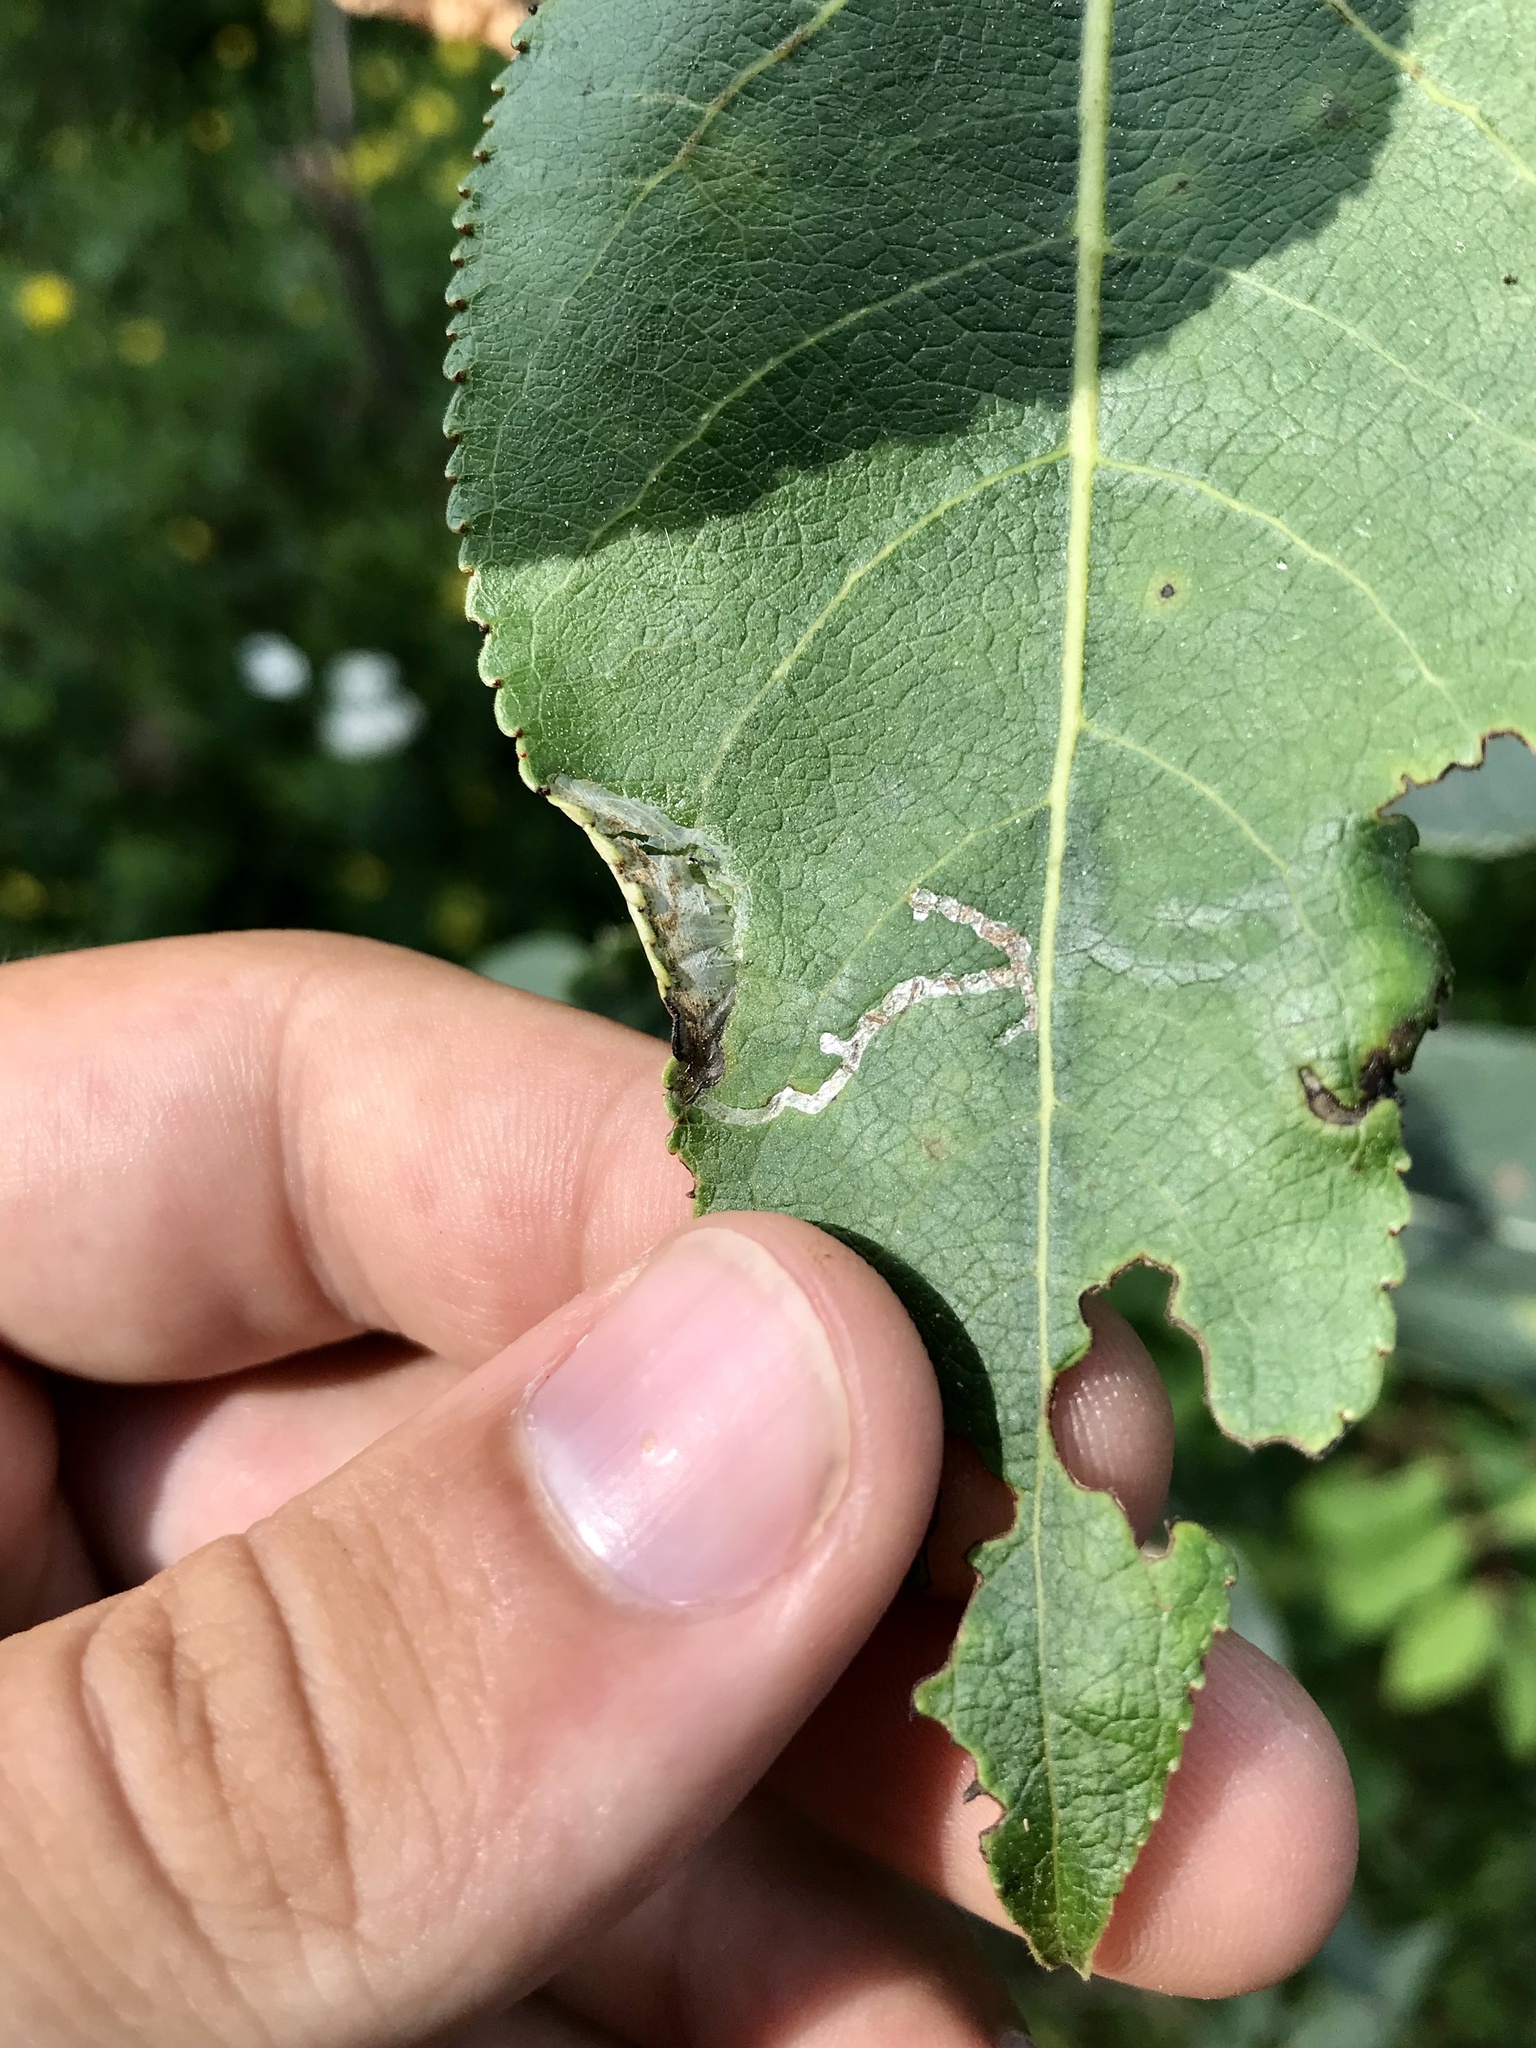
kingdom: Animalia
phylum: Arthropoda
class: Insecta
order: Lepidoptera
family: Gracillariidae
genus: Caloptilia
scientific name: Caloptilia stigmatella
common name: White-triangle slender
